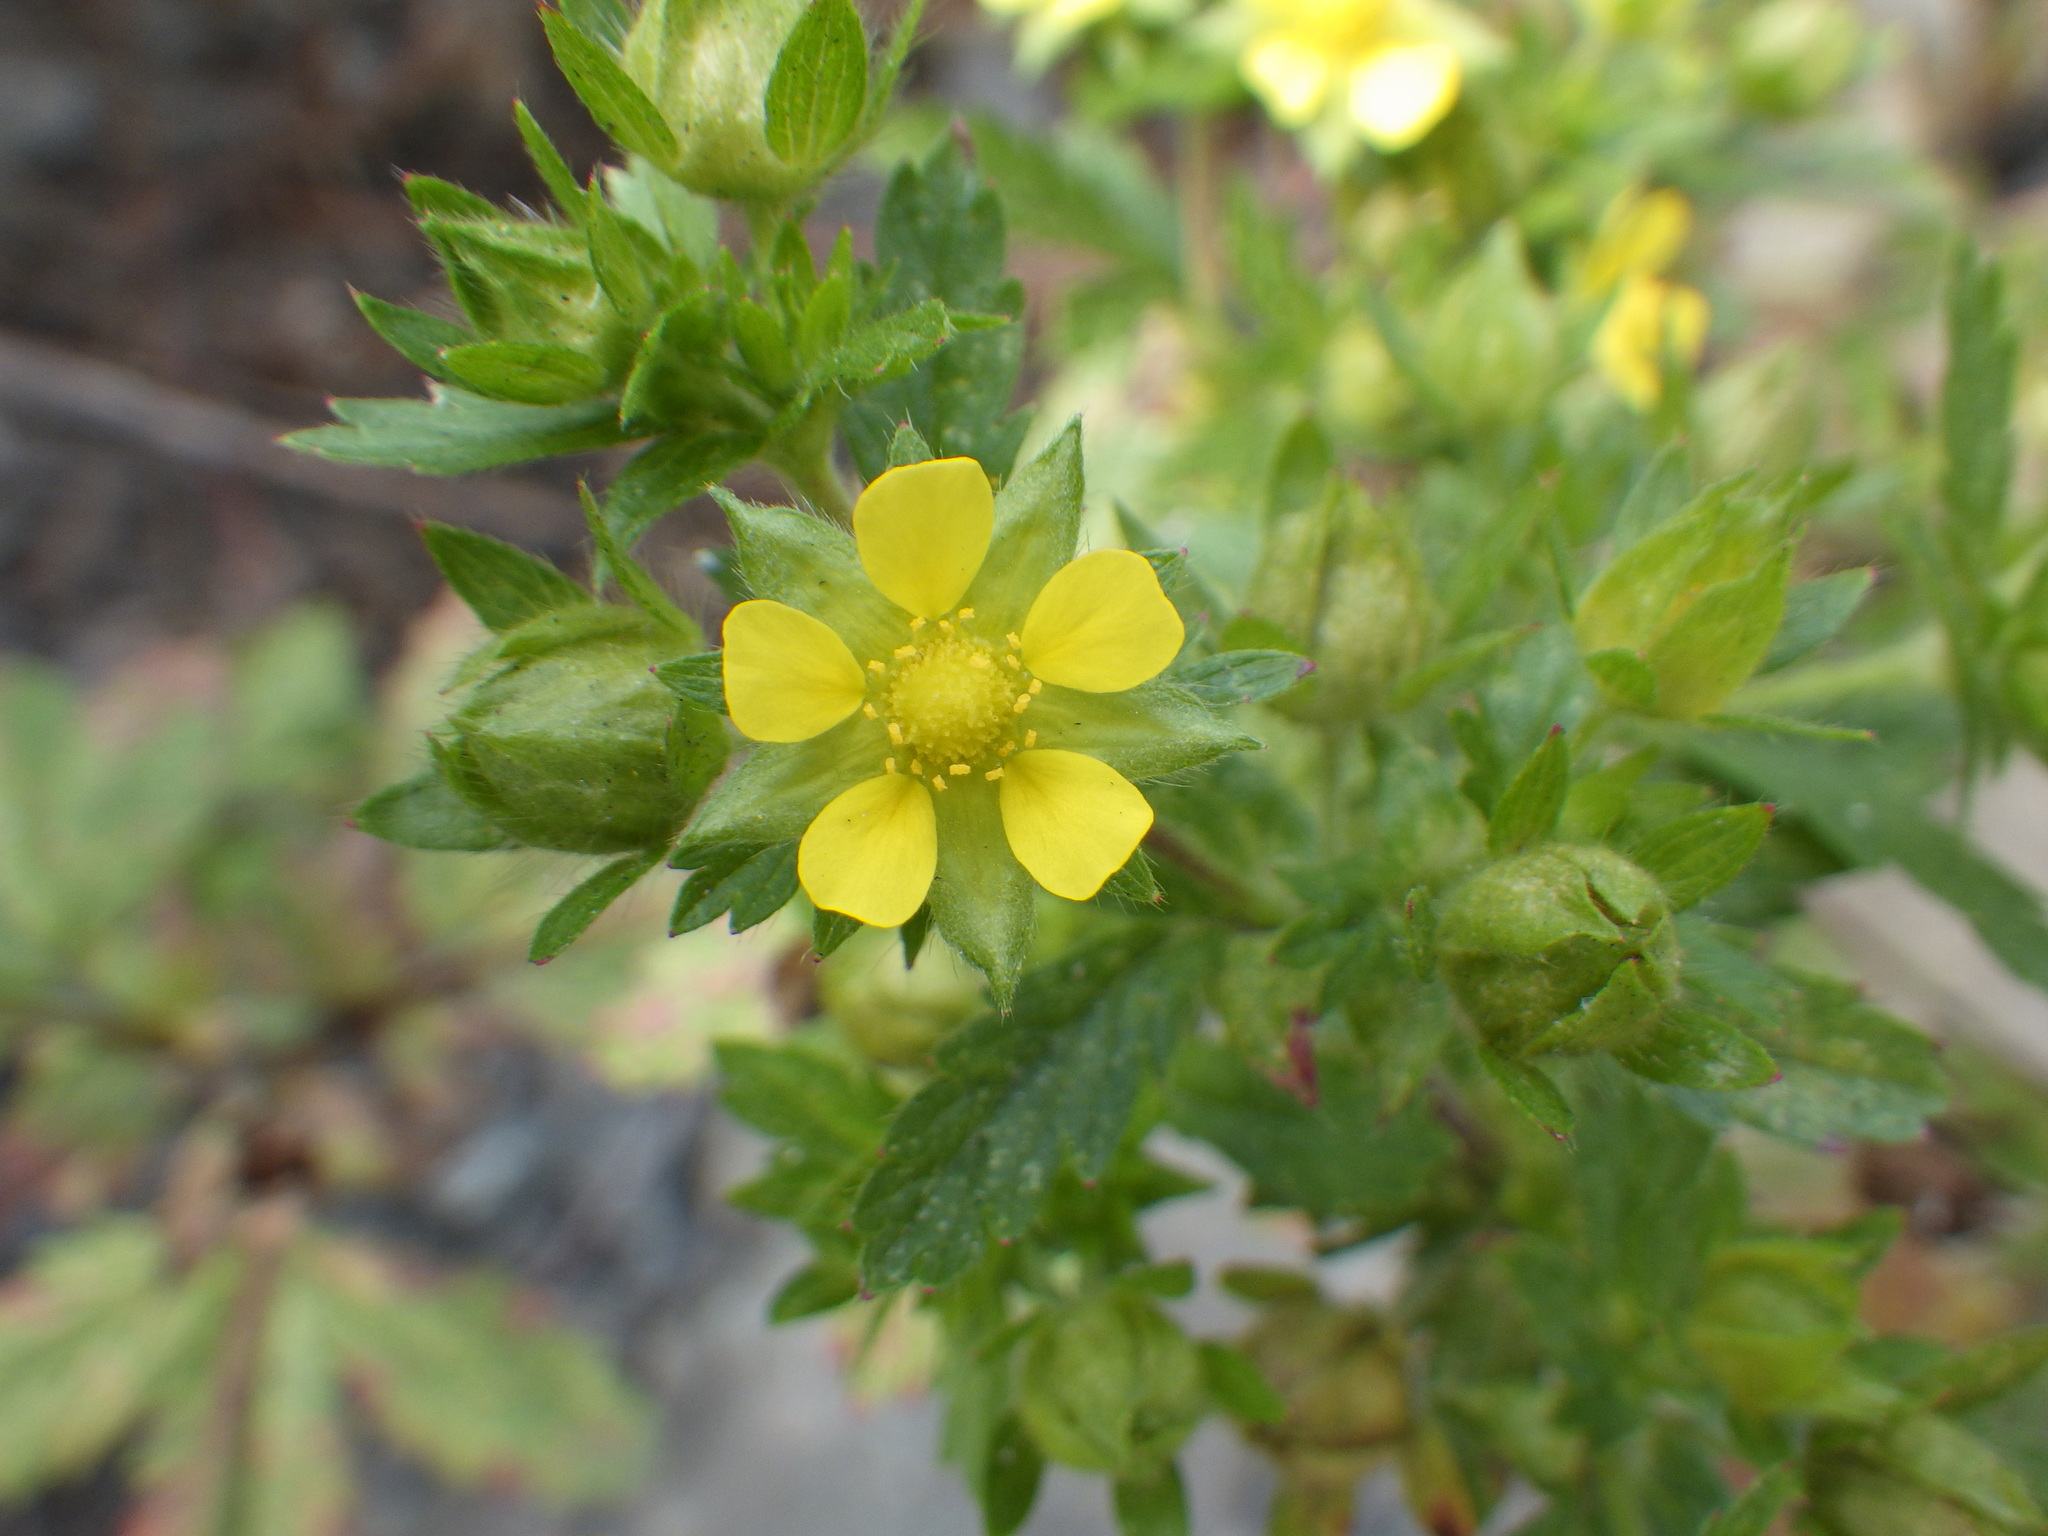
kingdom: Plantae
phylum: Tracheophyta
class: Magnoliopsida
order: Rosales
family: Rosaceae
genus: Potentilla
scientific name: Potentilla norvegica
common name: Ternate-leaved cinquefoil
